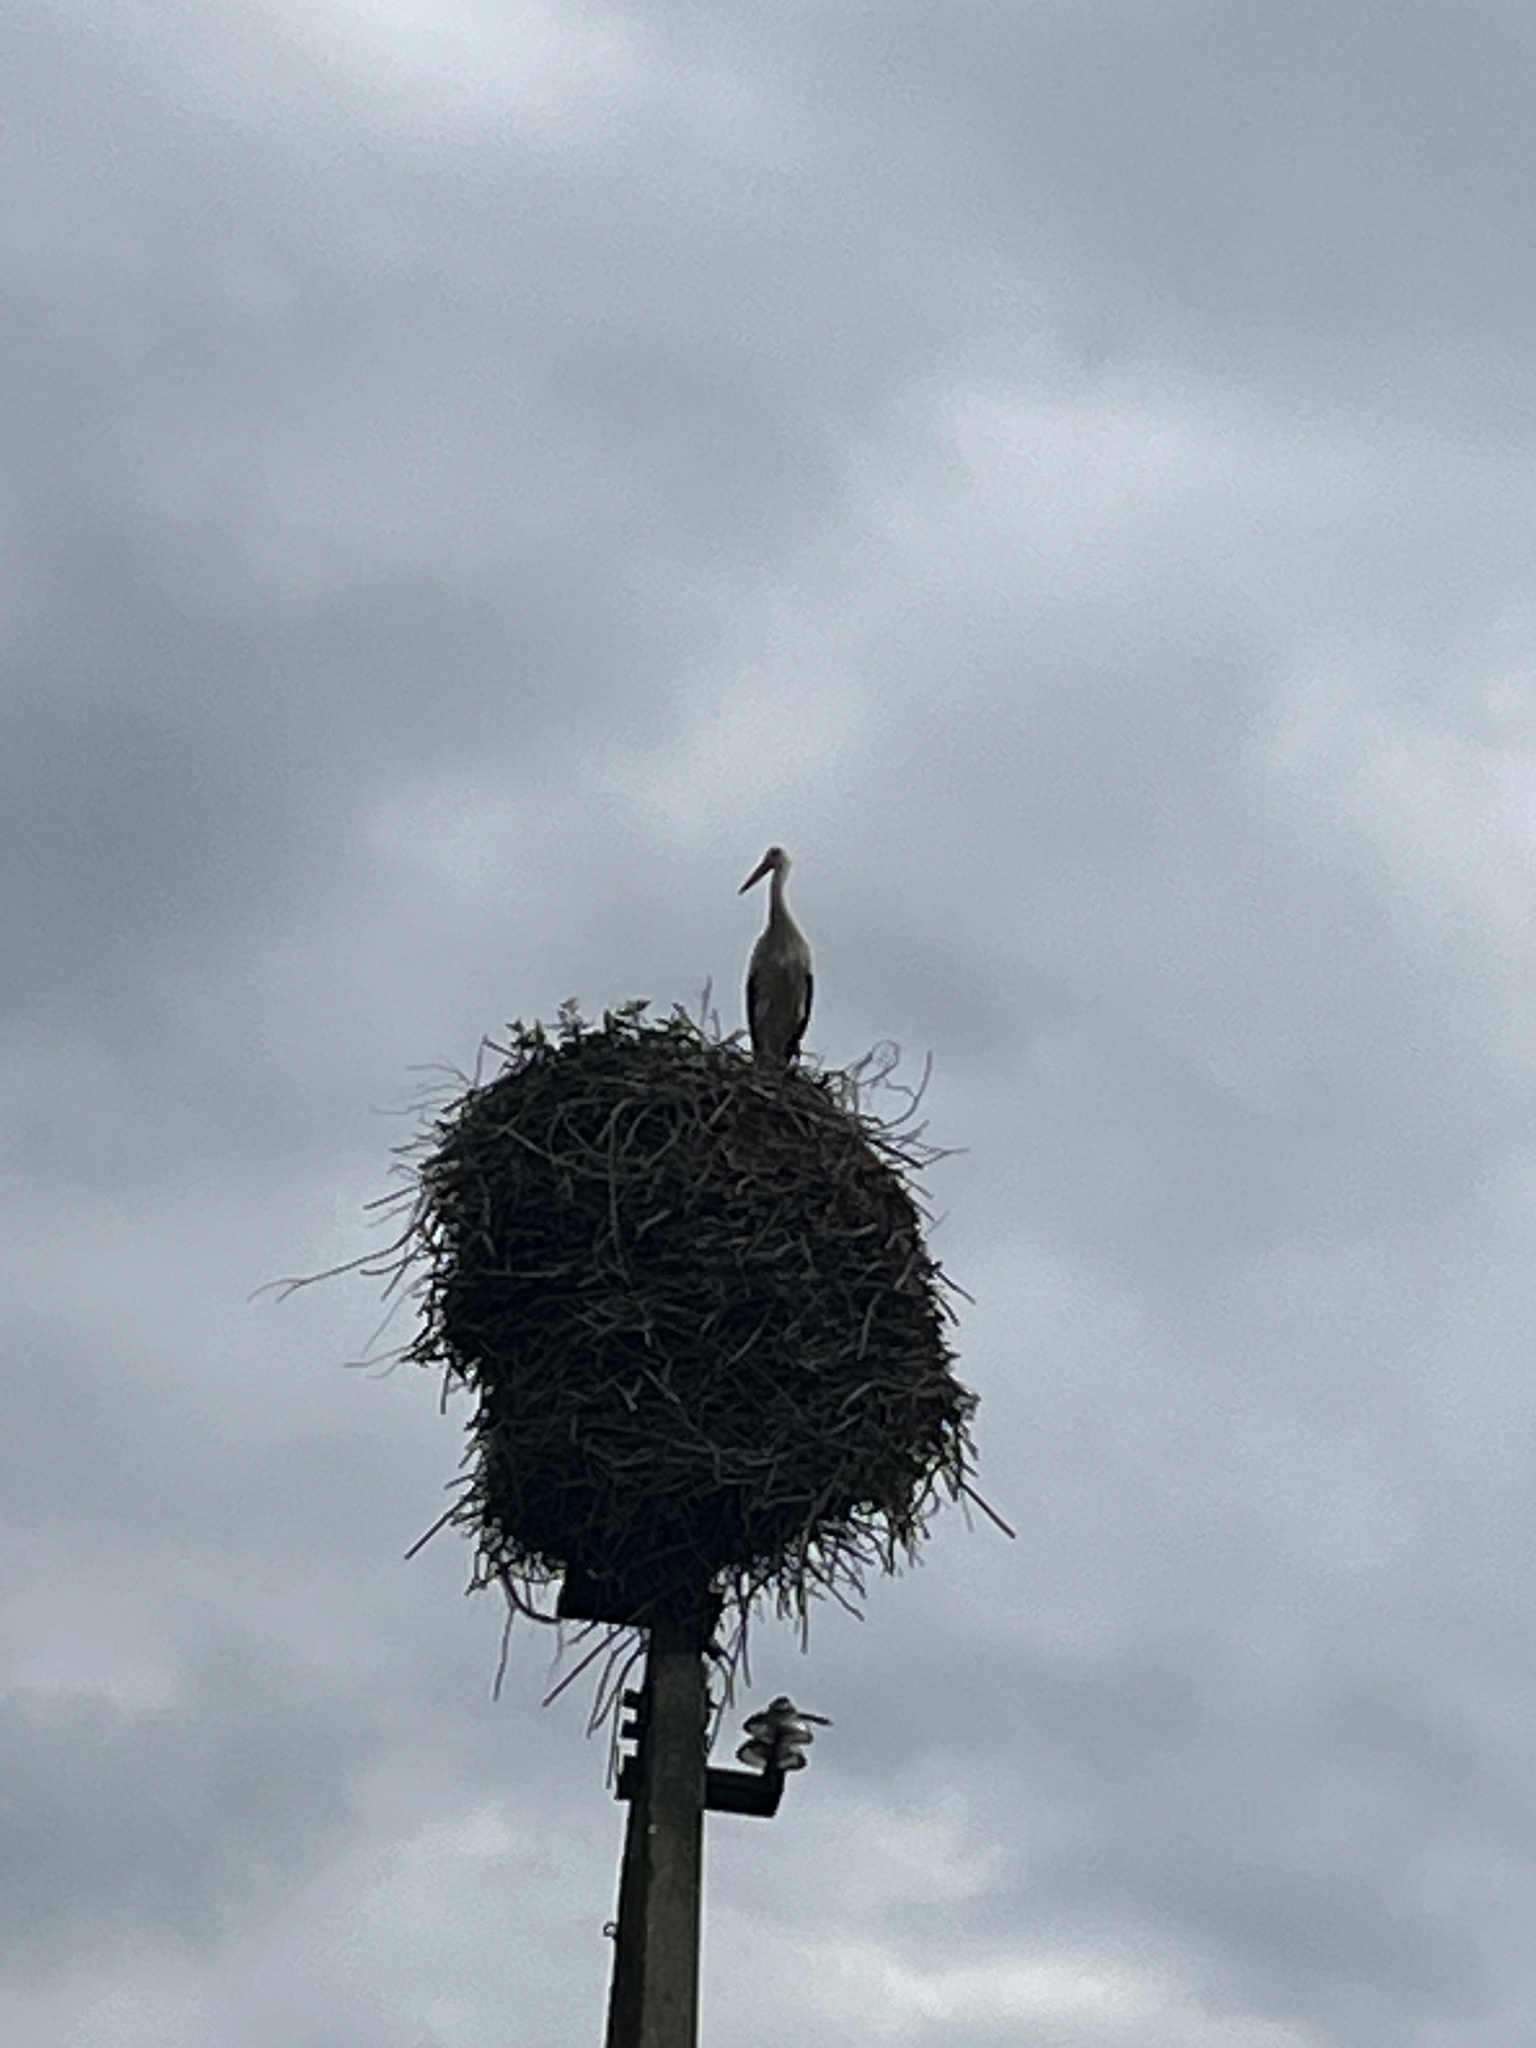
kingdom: Animalia
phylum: Chordata
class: Aves
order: Ciconiiformes
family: Ciconiidae
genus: Ciconia
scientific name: Ciconia ciconia
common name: White stork
